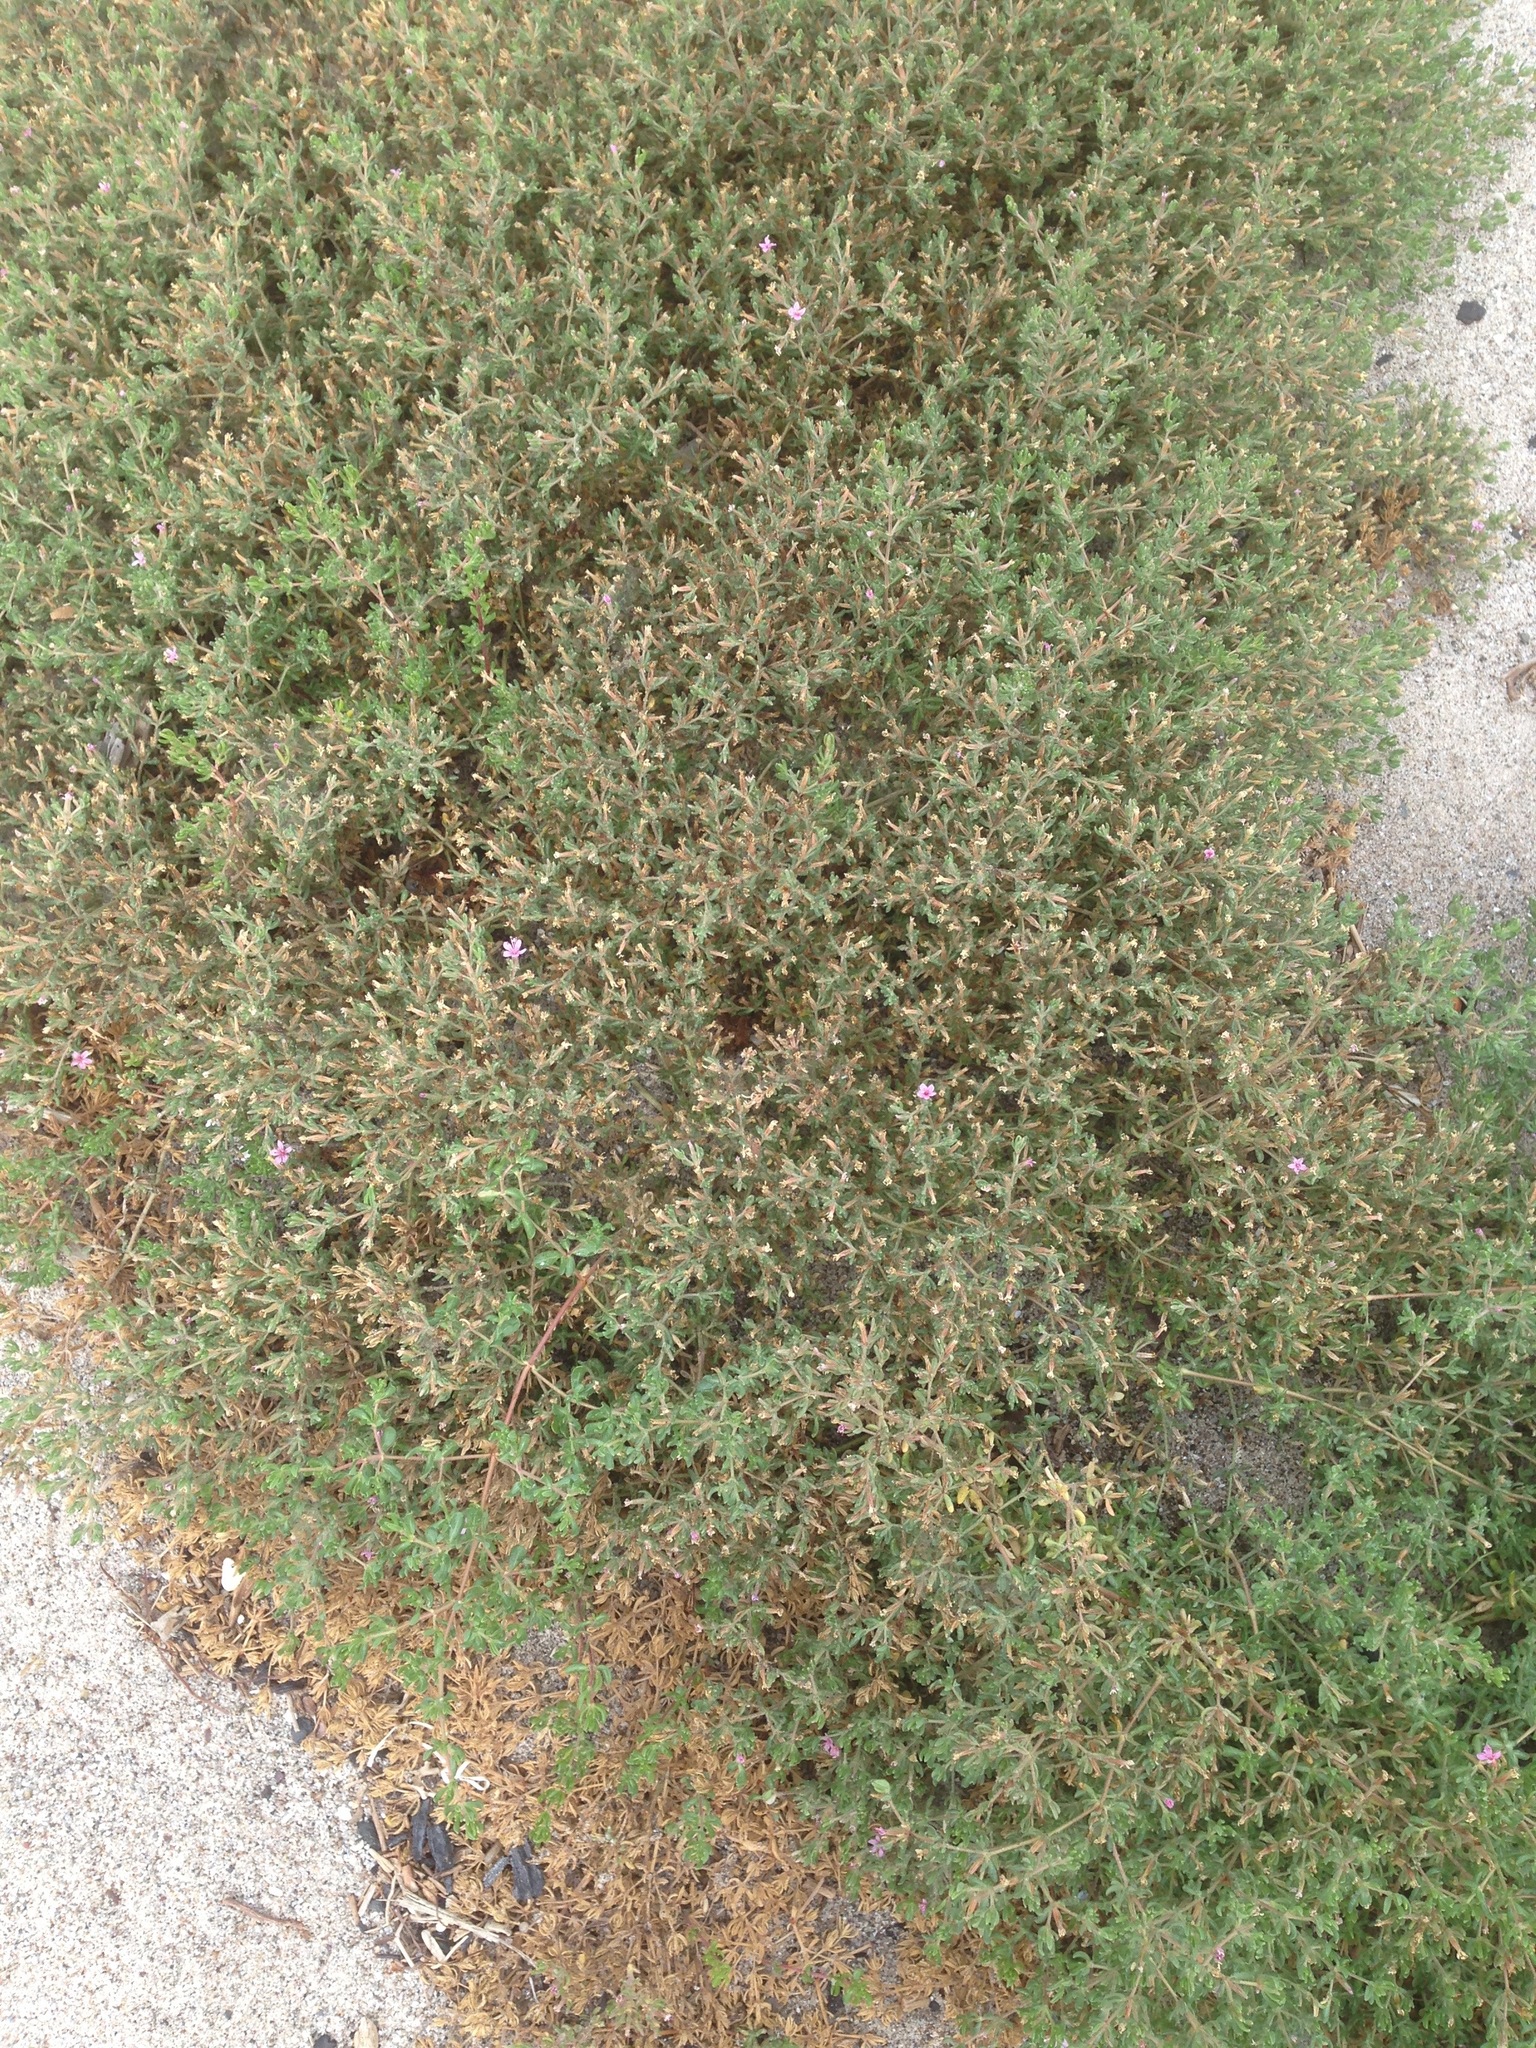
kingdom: Plantae
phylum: Tracheophyta
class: Magnoliopsida
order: Caryophyllales
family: Frankeniaceae
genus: Frankenia
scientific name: Frankenia salina
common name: Alkali seaheath
